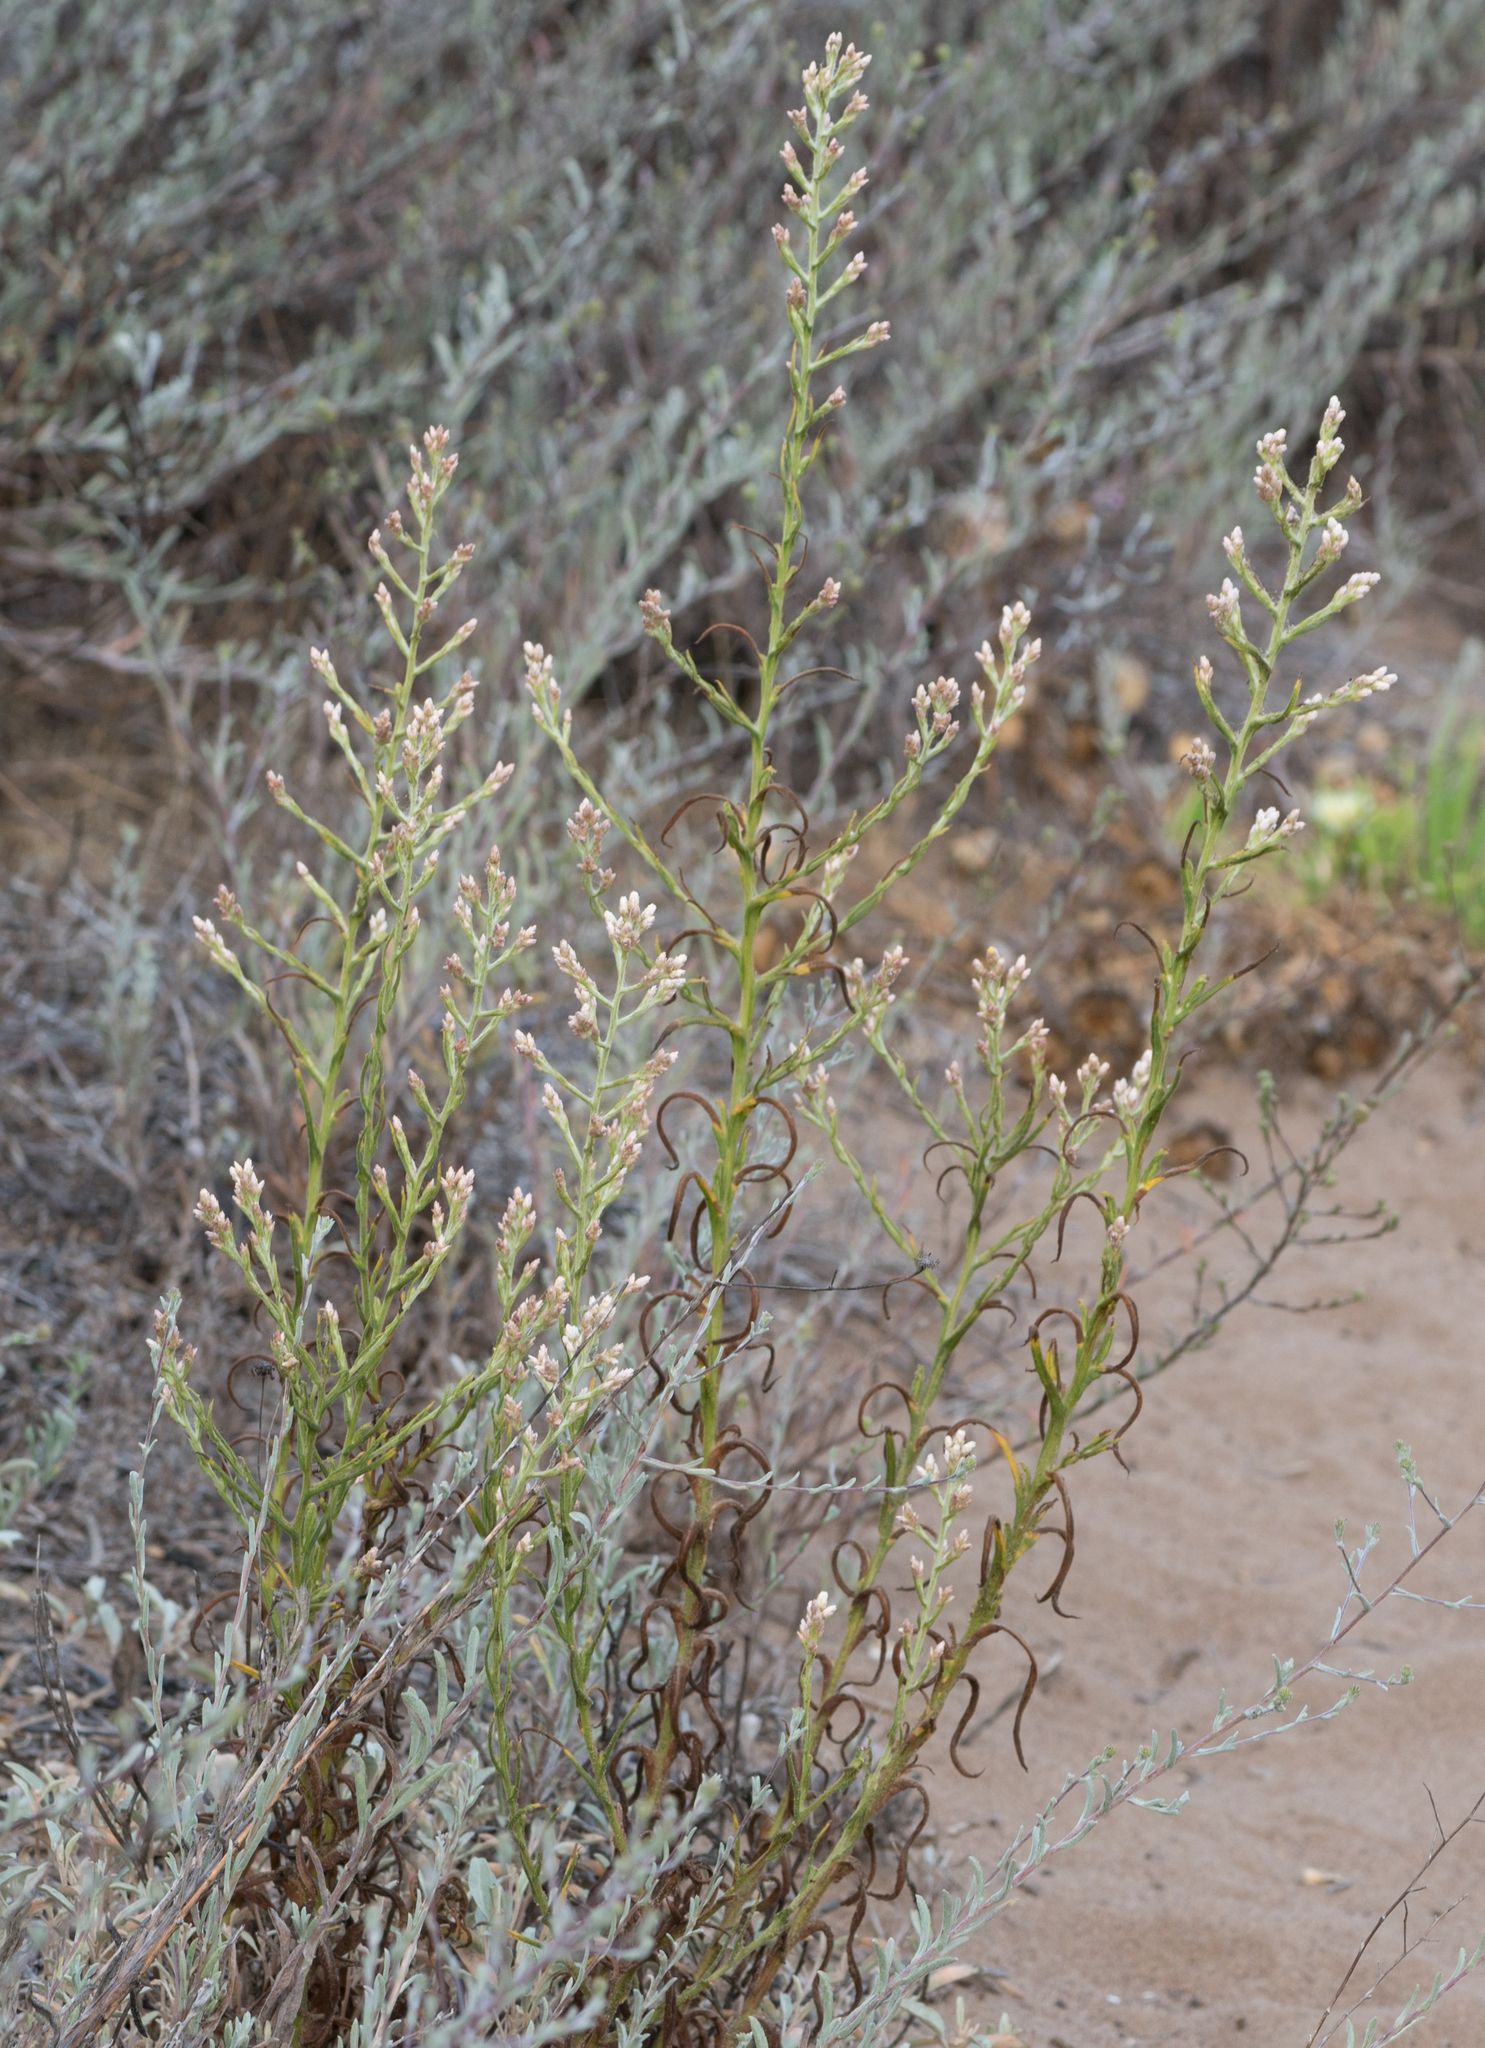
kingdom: Plantae
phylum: Tracheophyta
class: Magnoliopsida
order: Asterales
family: Asteraceae
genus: Pseudognaphalium
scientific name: Pseudognaphalium ramosissimum
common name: Pink rabbit-tobacco
